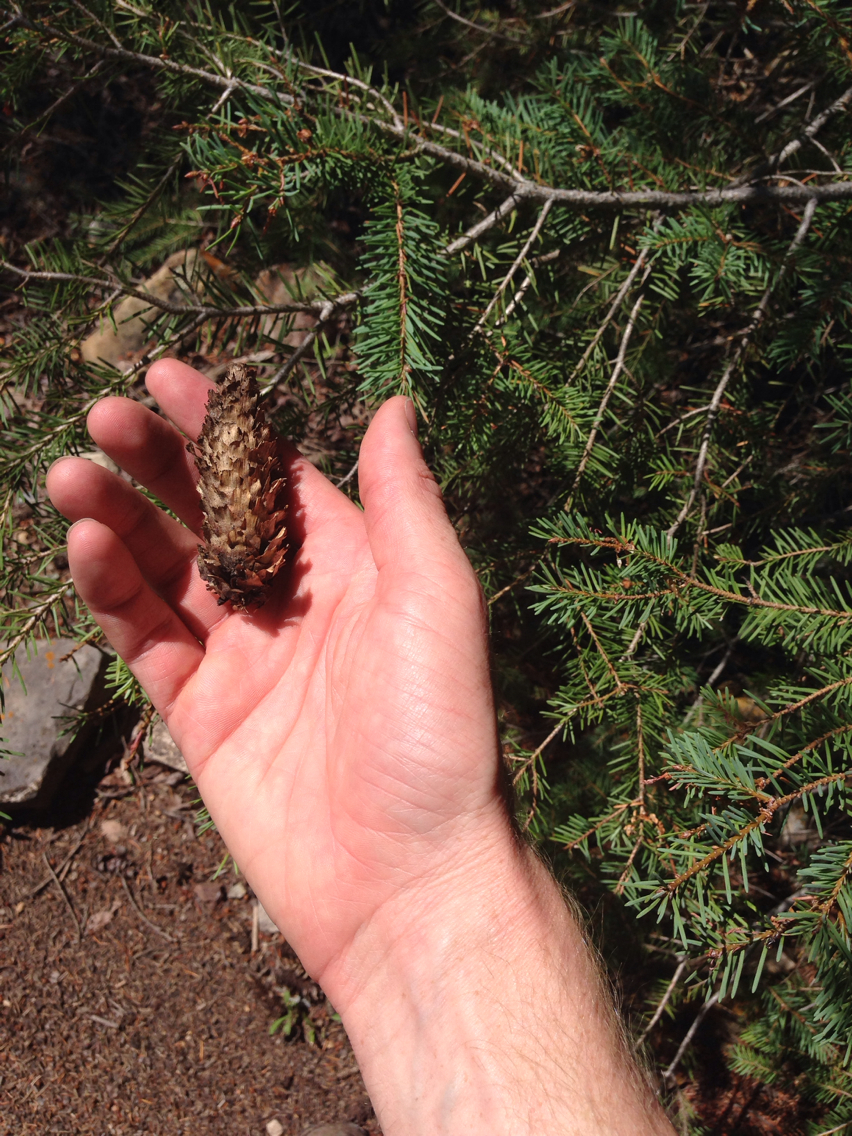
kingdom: Plantae
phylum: Tracheophyta
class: Pinopsida
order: Pinales
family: Pinaceae
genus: Pseudotsuga
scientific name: Pseudotsuga menziesii
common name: Douglas fir
